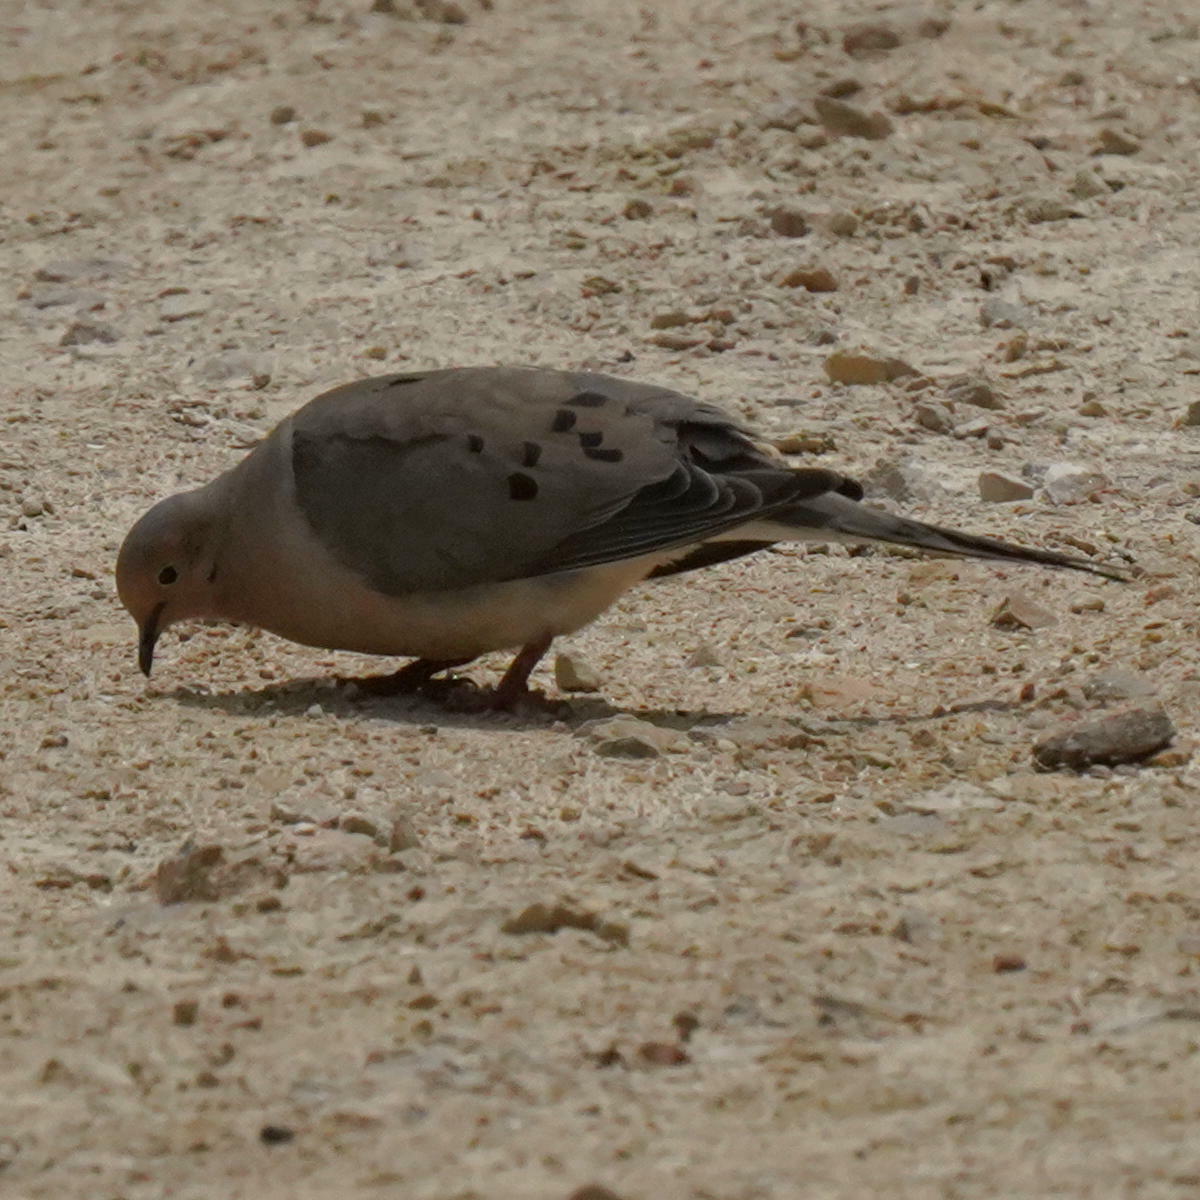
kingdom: Animalia
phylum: Chordata
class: Aves
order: Columbiformes
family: Columbidae
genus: Zenaida
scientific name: Zenaida macroura
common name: Mourning dove
